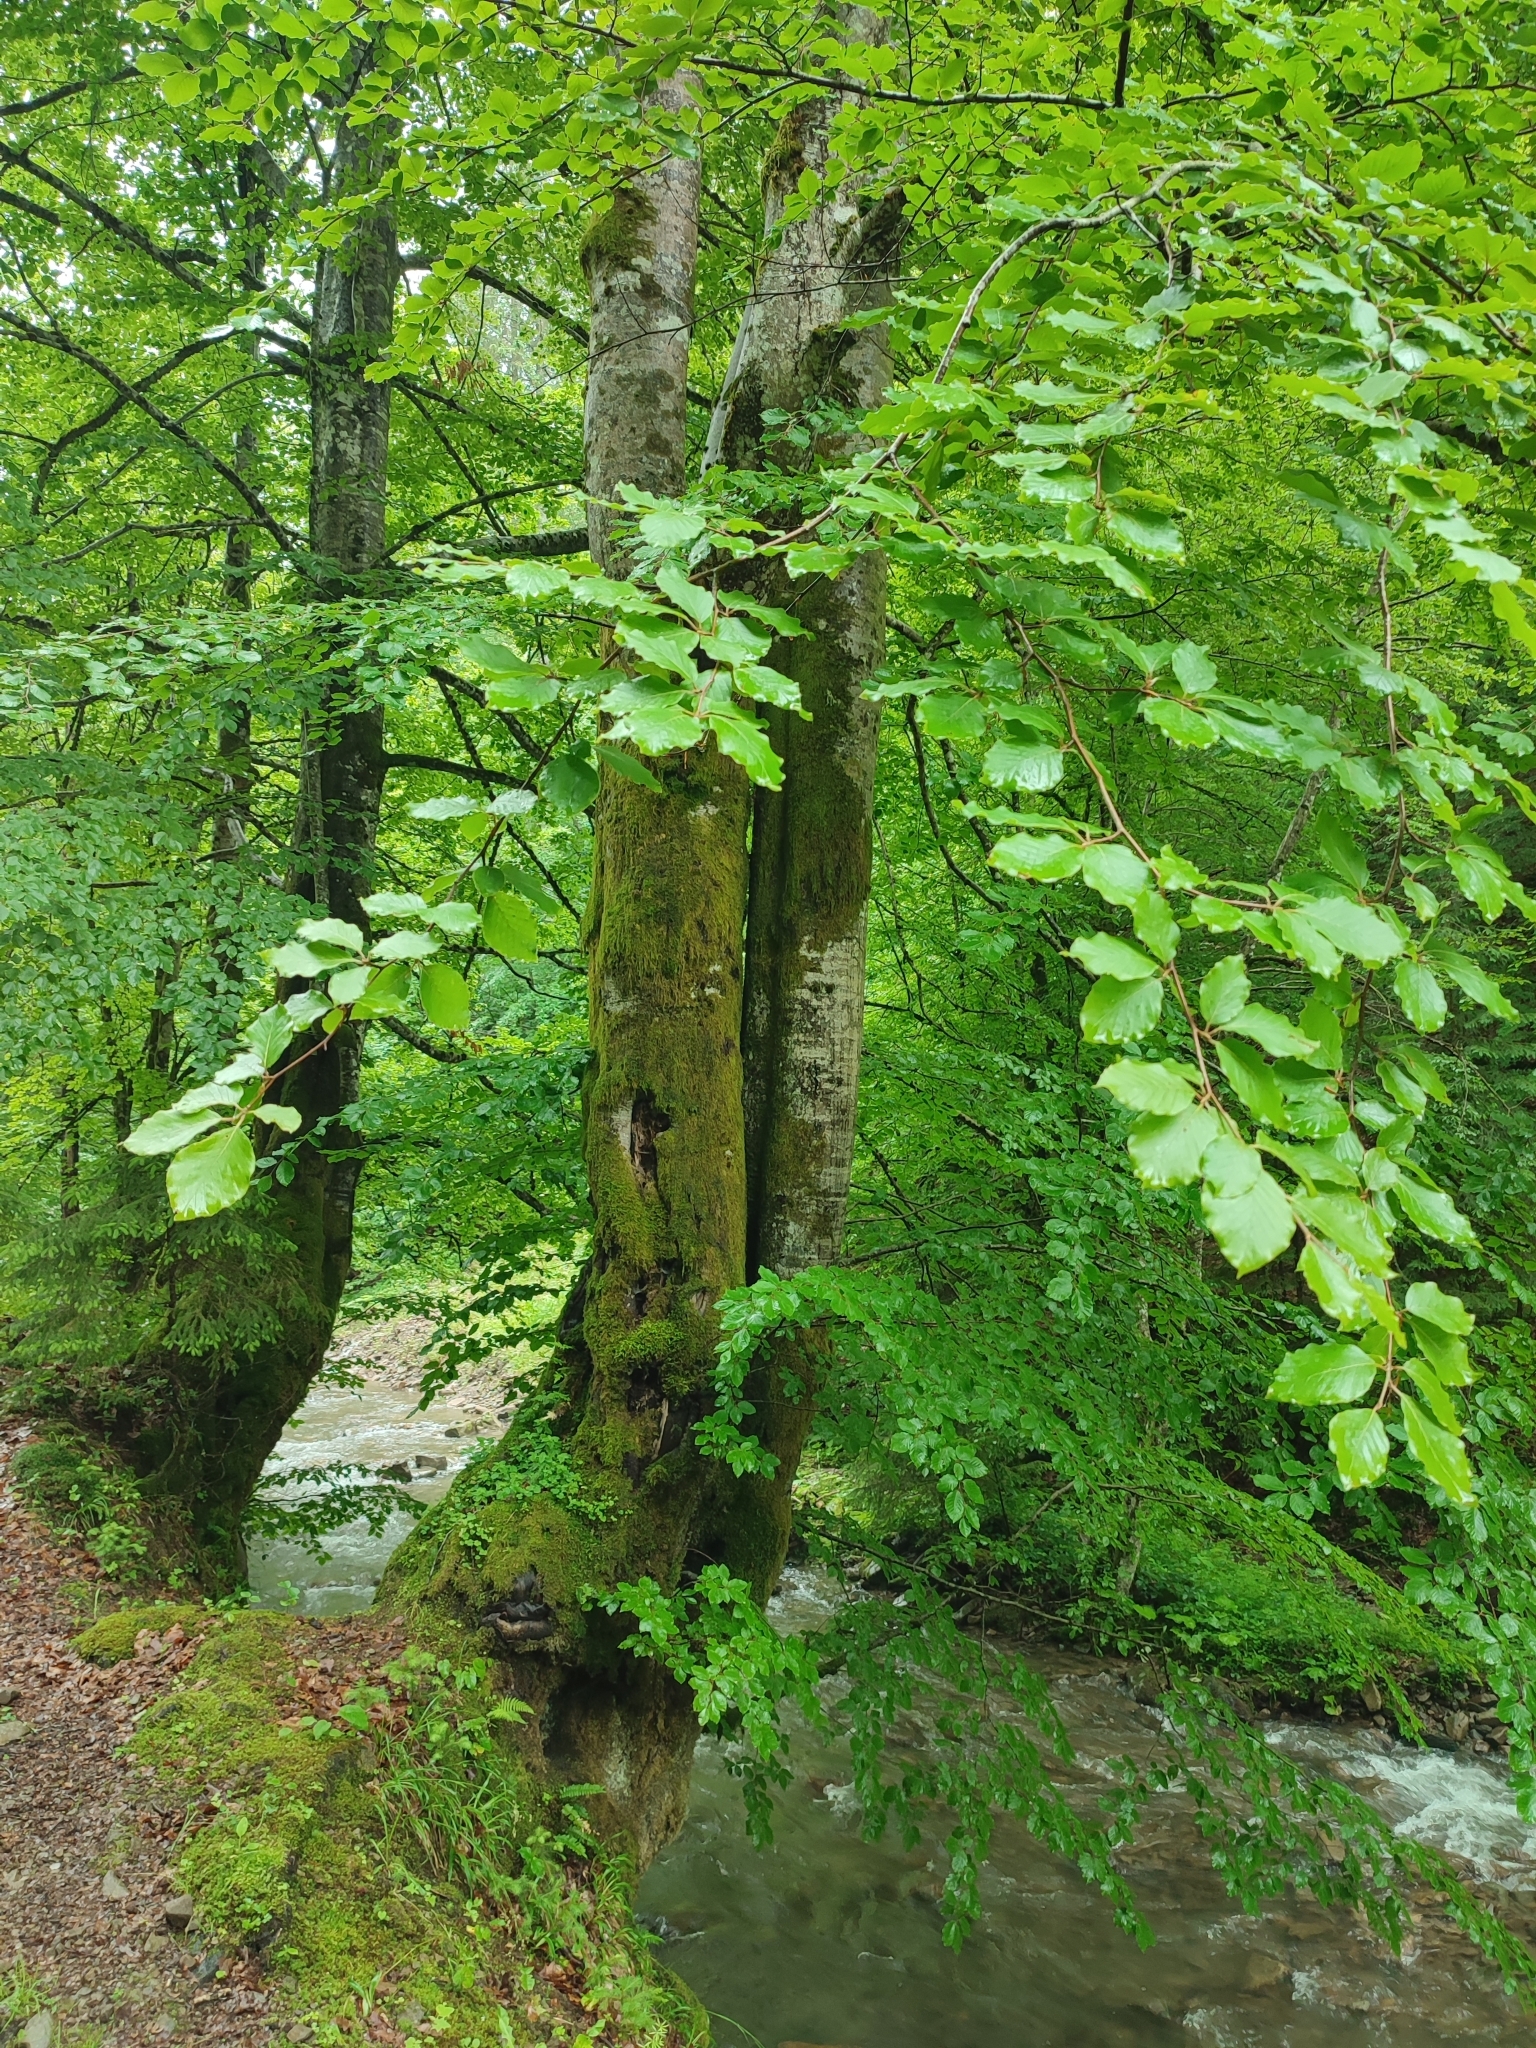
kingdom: Plantae
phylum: Tracheophyta
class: Magnoliopsida
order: Fagales
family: Fagaceae
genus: Fagus
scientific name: Fagus sylvatica
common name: Beech
